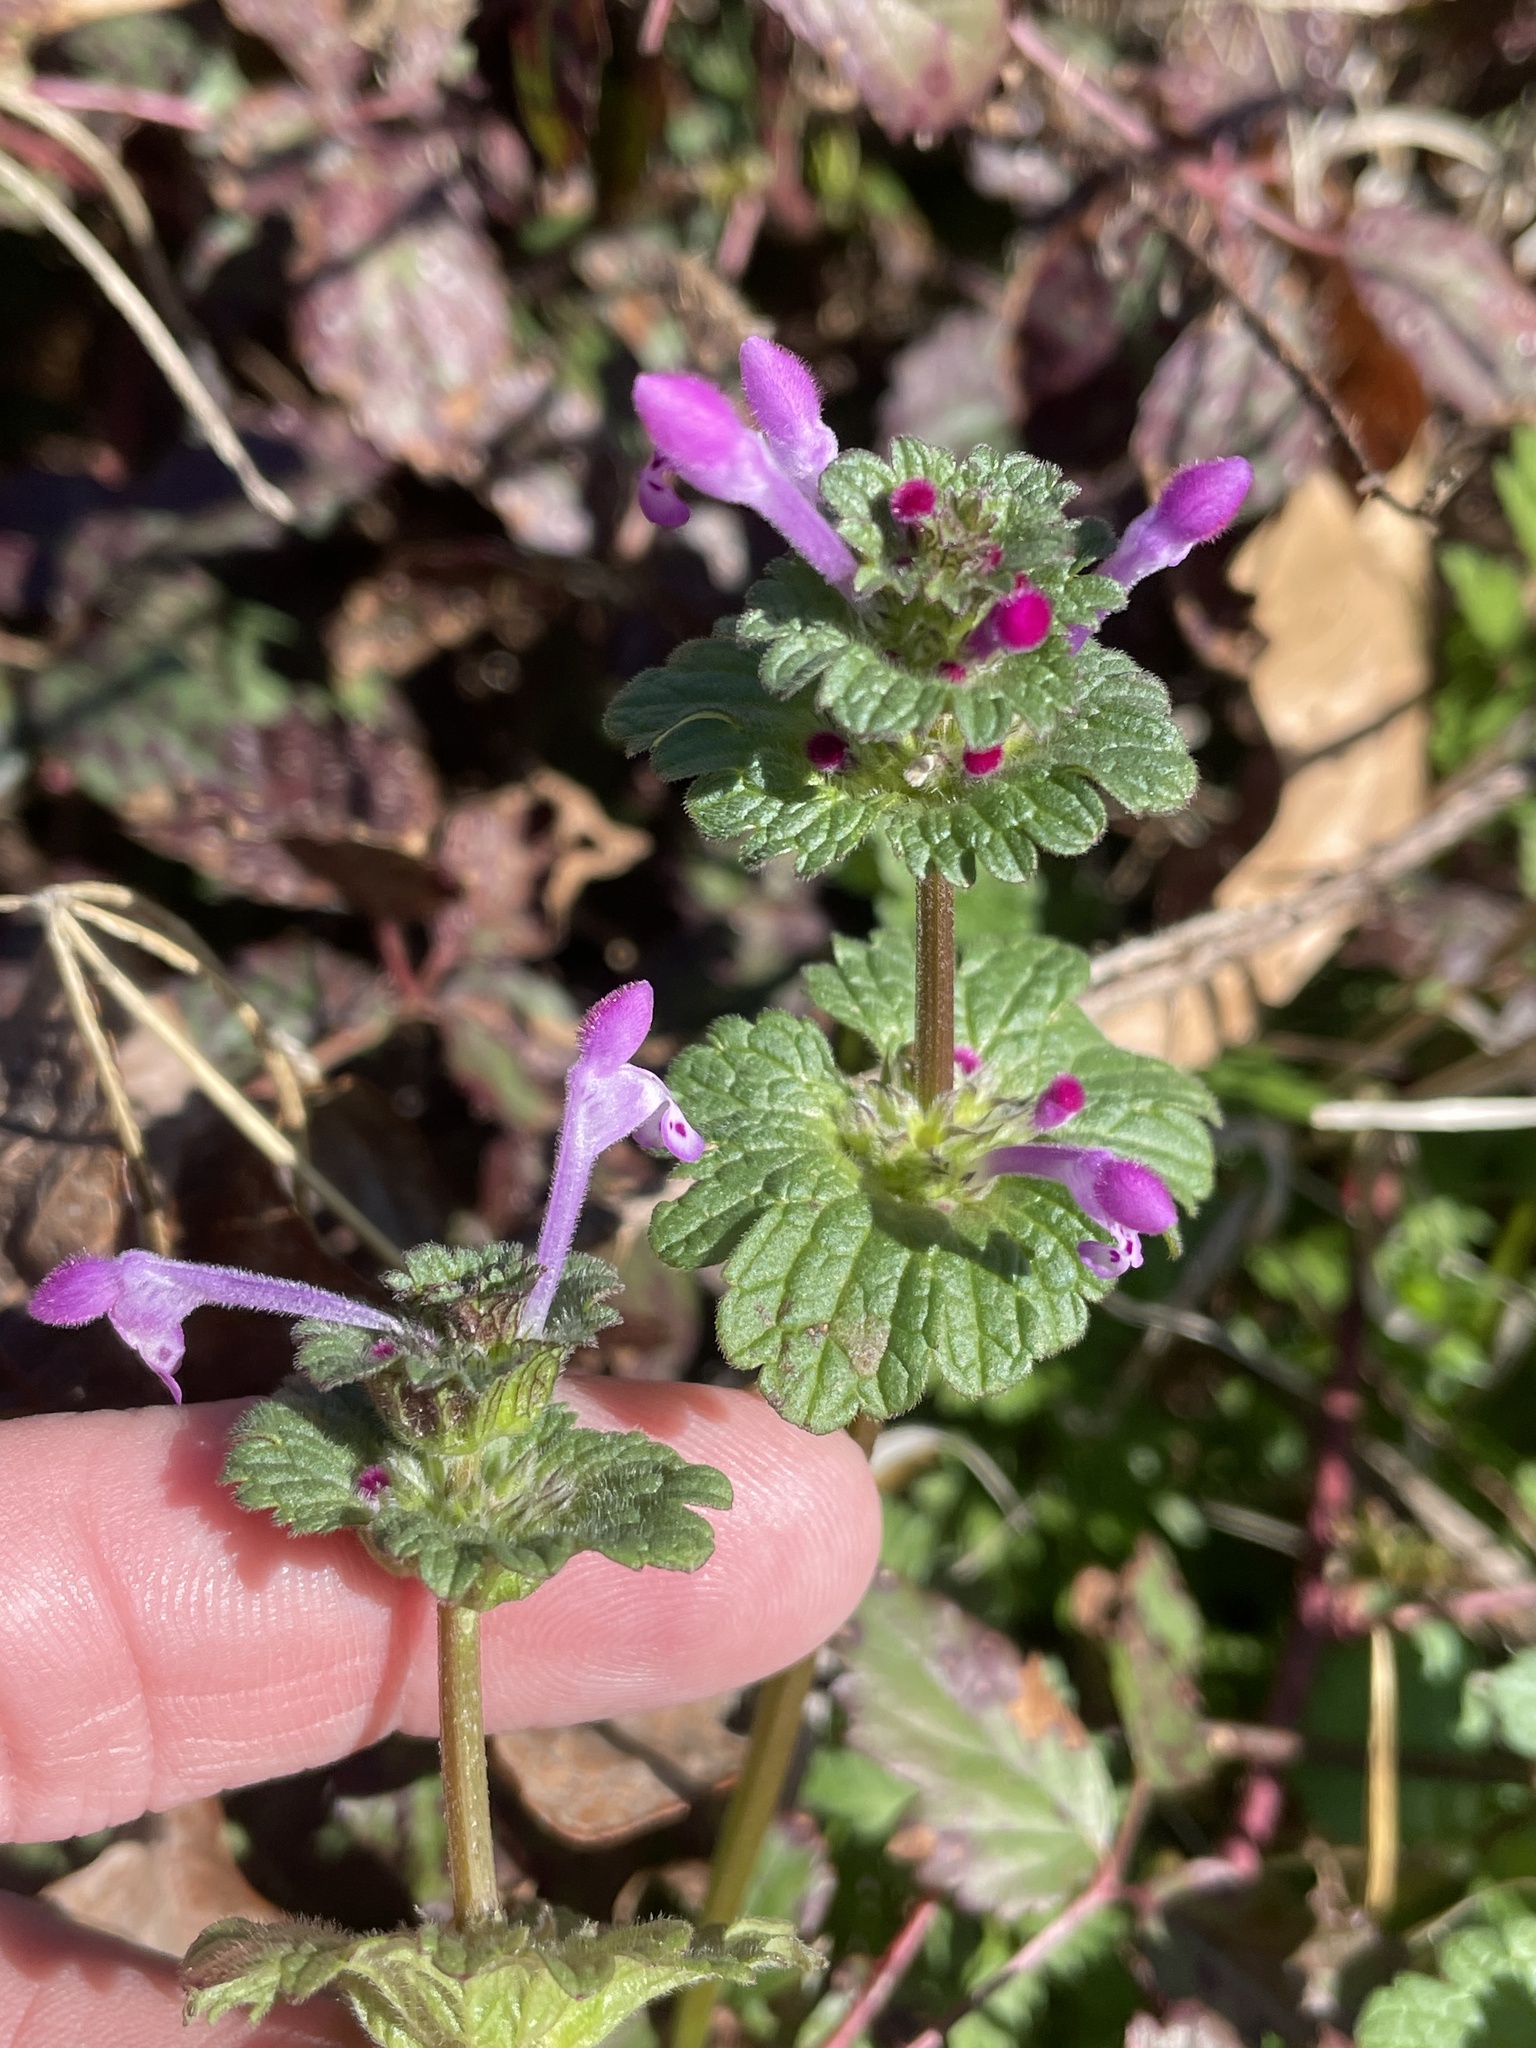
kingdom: Plantae
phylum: Tracheophyta
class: Magnoliopsida
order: Lamiales
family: Lamiaceae
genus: Lamium
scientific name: Lamium amplexicaule
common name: Henbit dead-nettle
